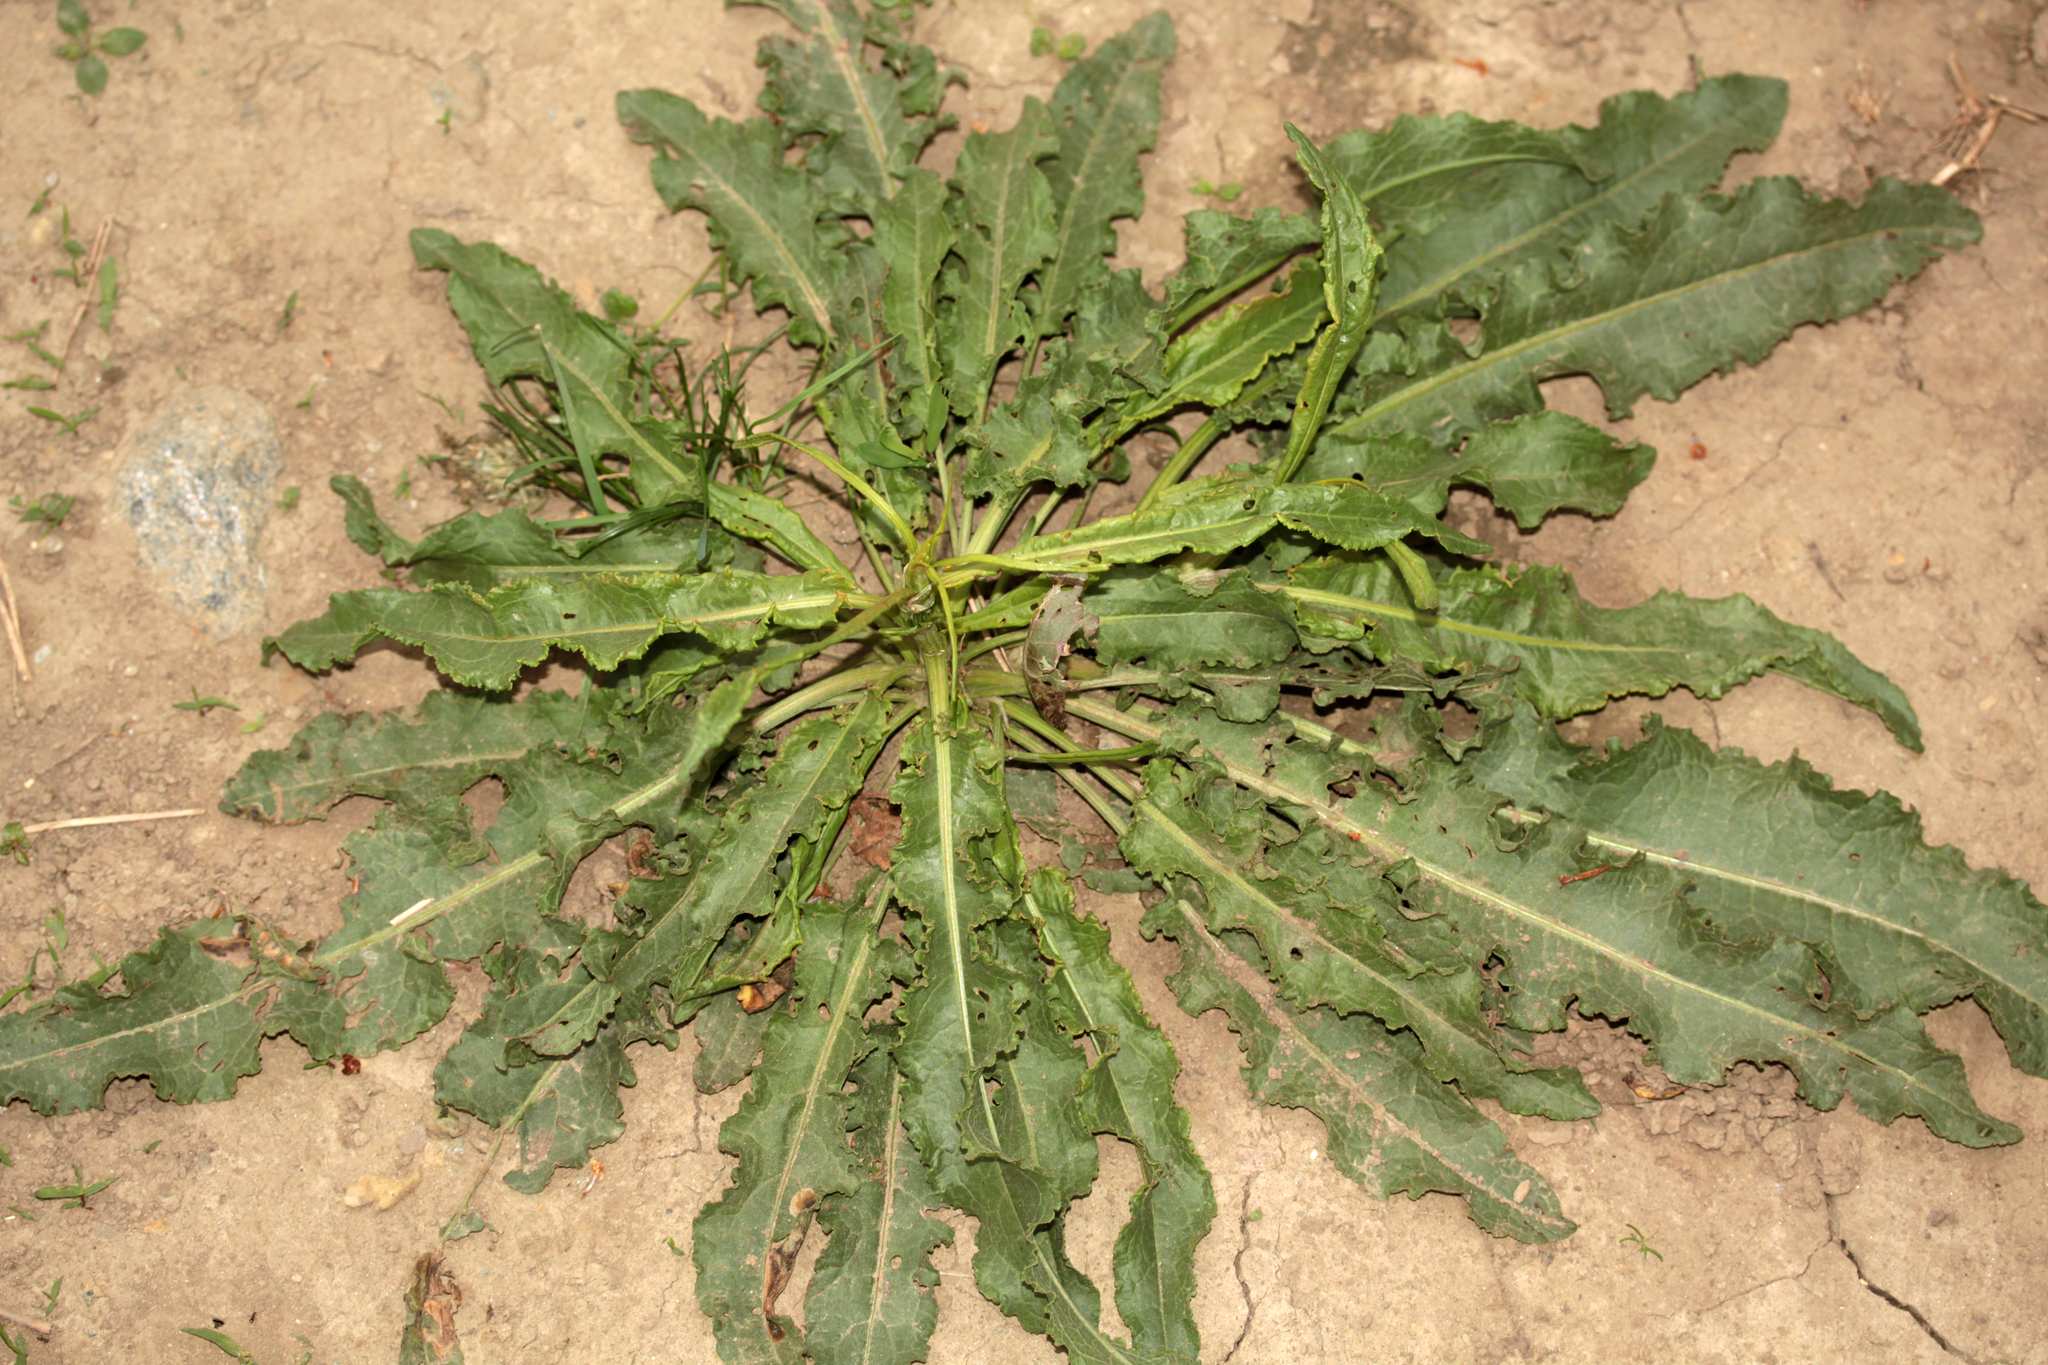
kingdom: Plantae
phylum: Tracheophyta
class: Magnoliopsida
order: Caryophyllales
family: Polygonaceae
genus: Rumex
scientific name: Rumex crispus
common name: Curled dock
